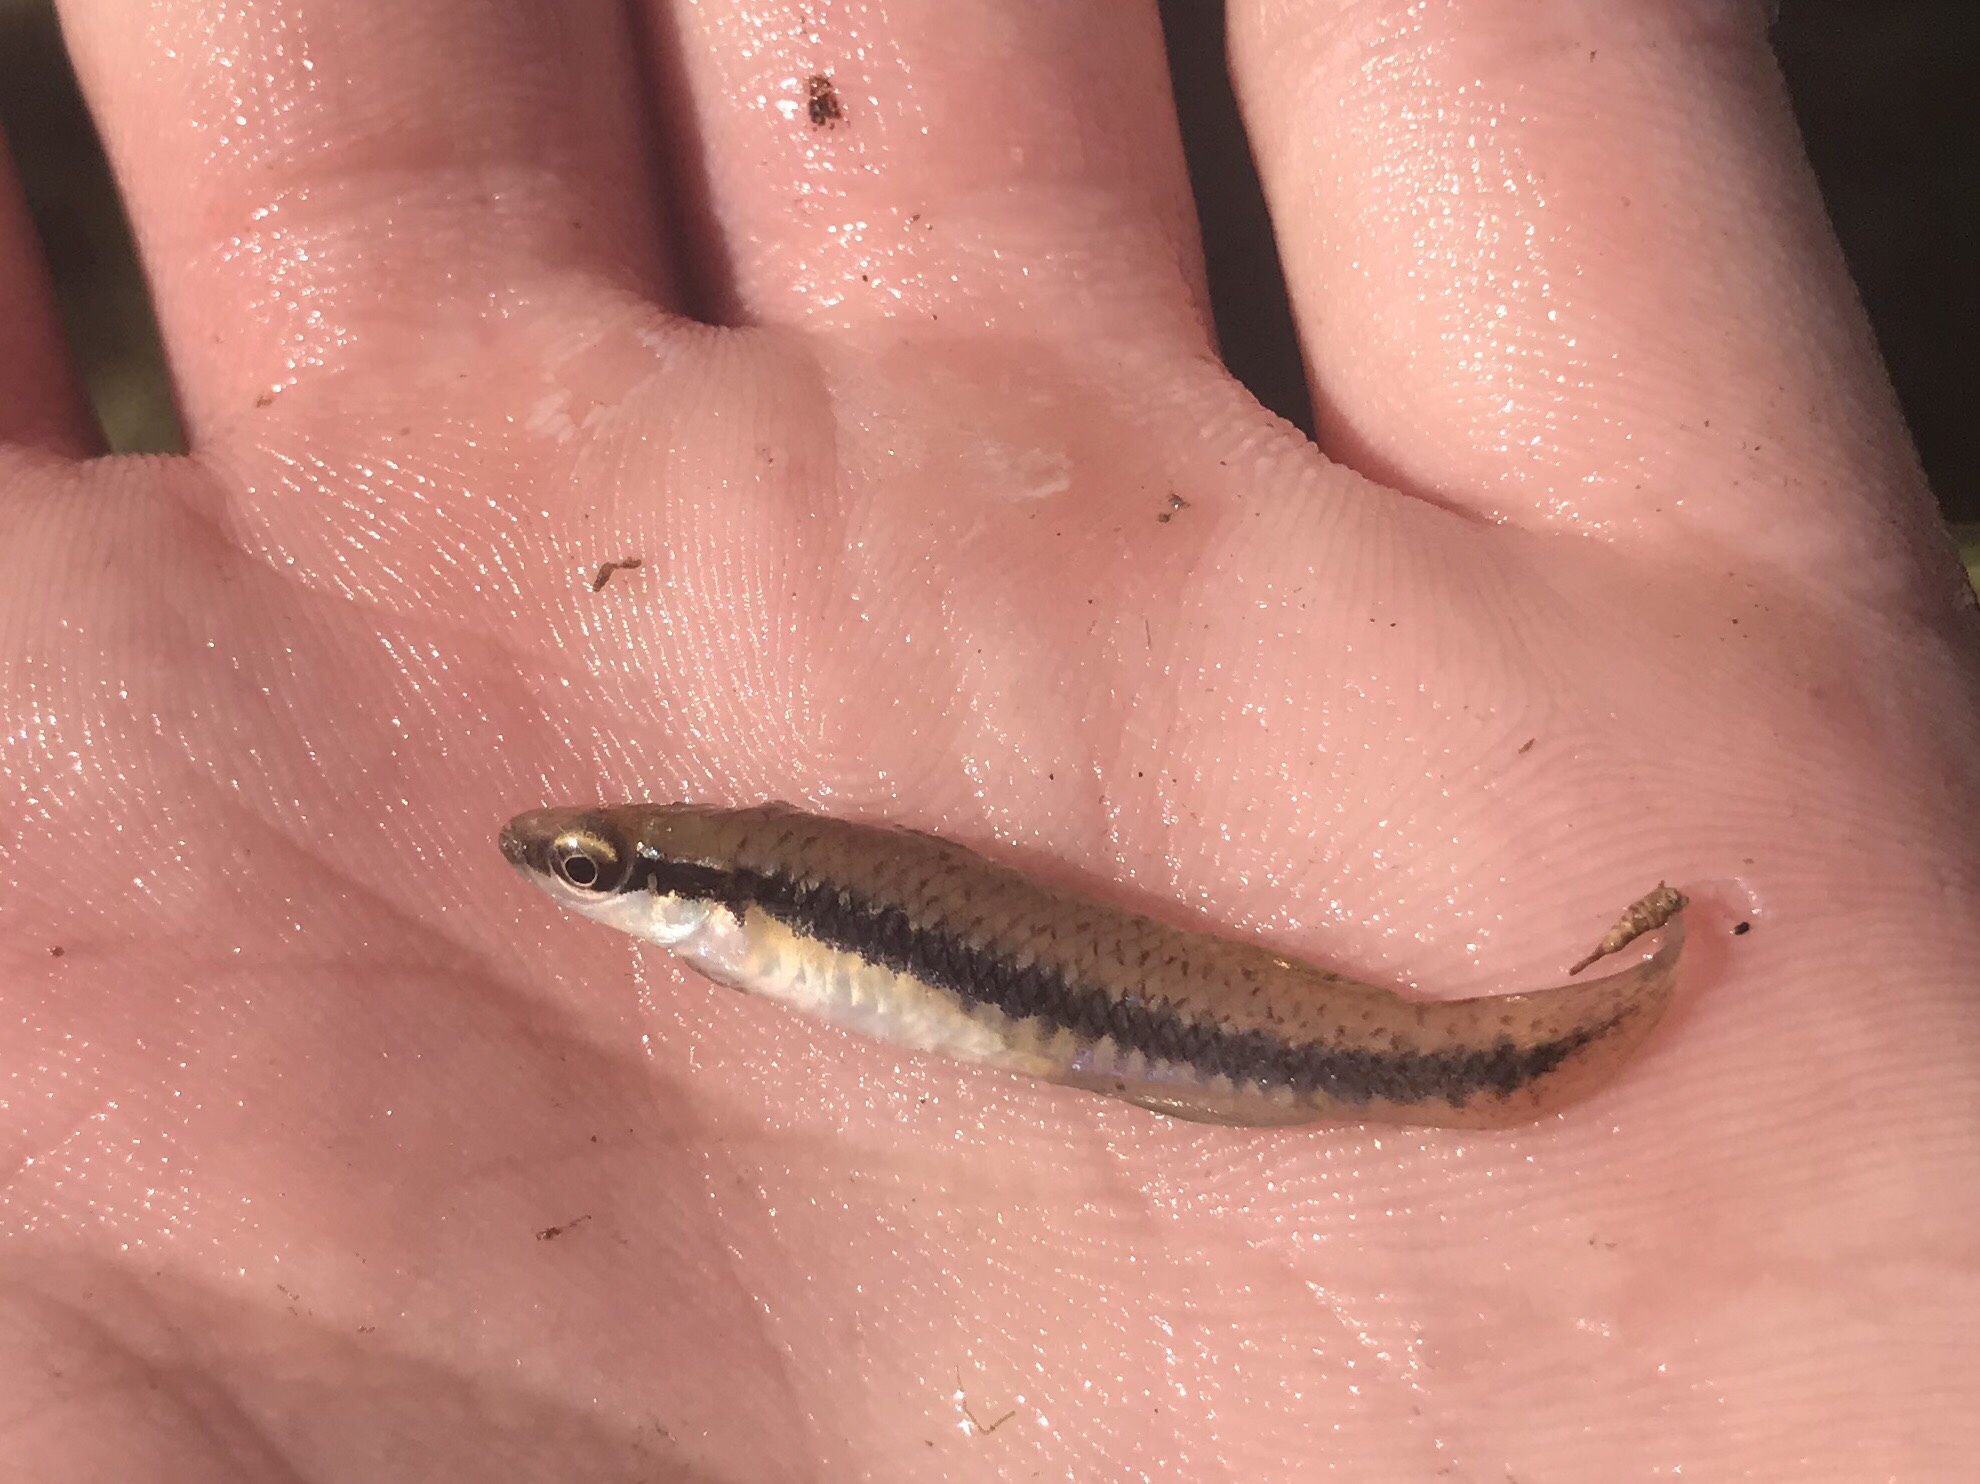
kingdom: Animalia
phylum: Chordata
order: Cyprinodontiformes
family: Fundulidae
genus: Fundulus
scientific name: Fundulus notatus
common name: Blackstripe topminnow
